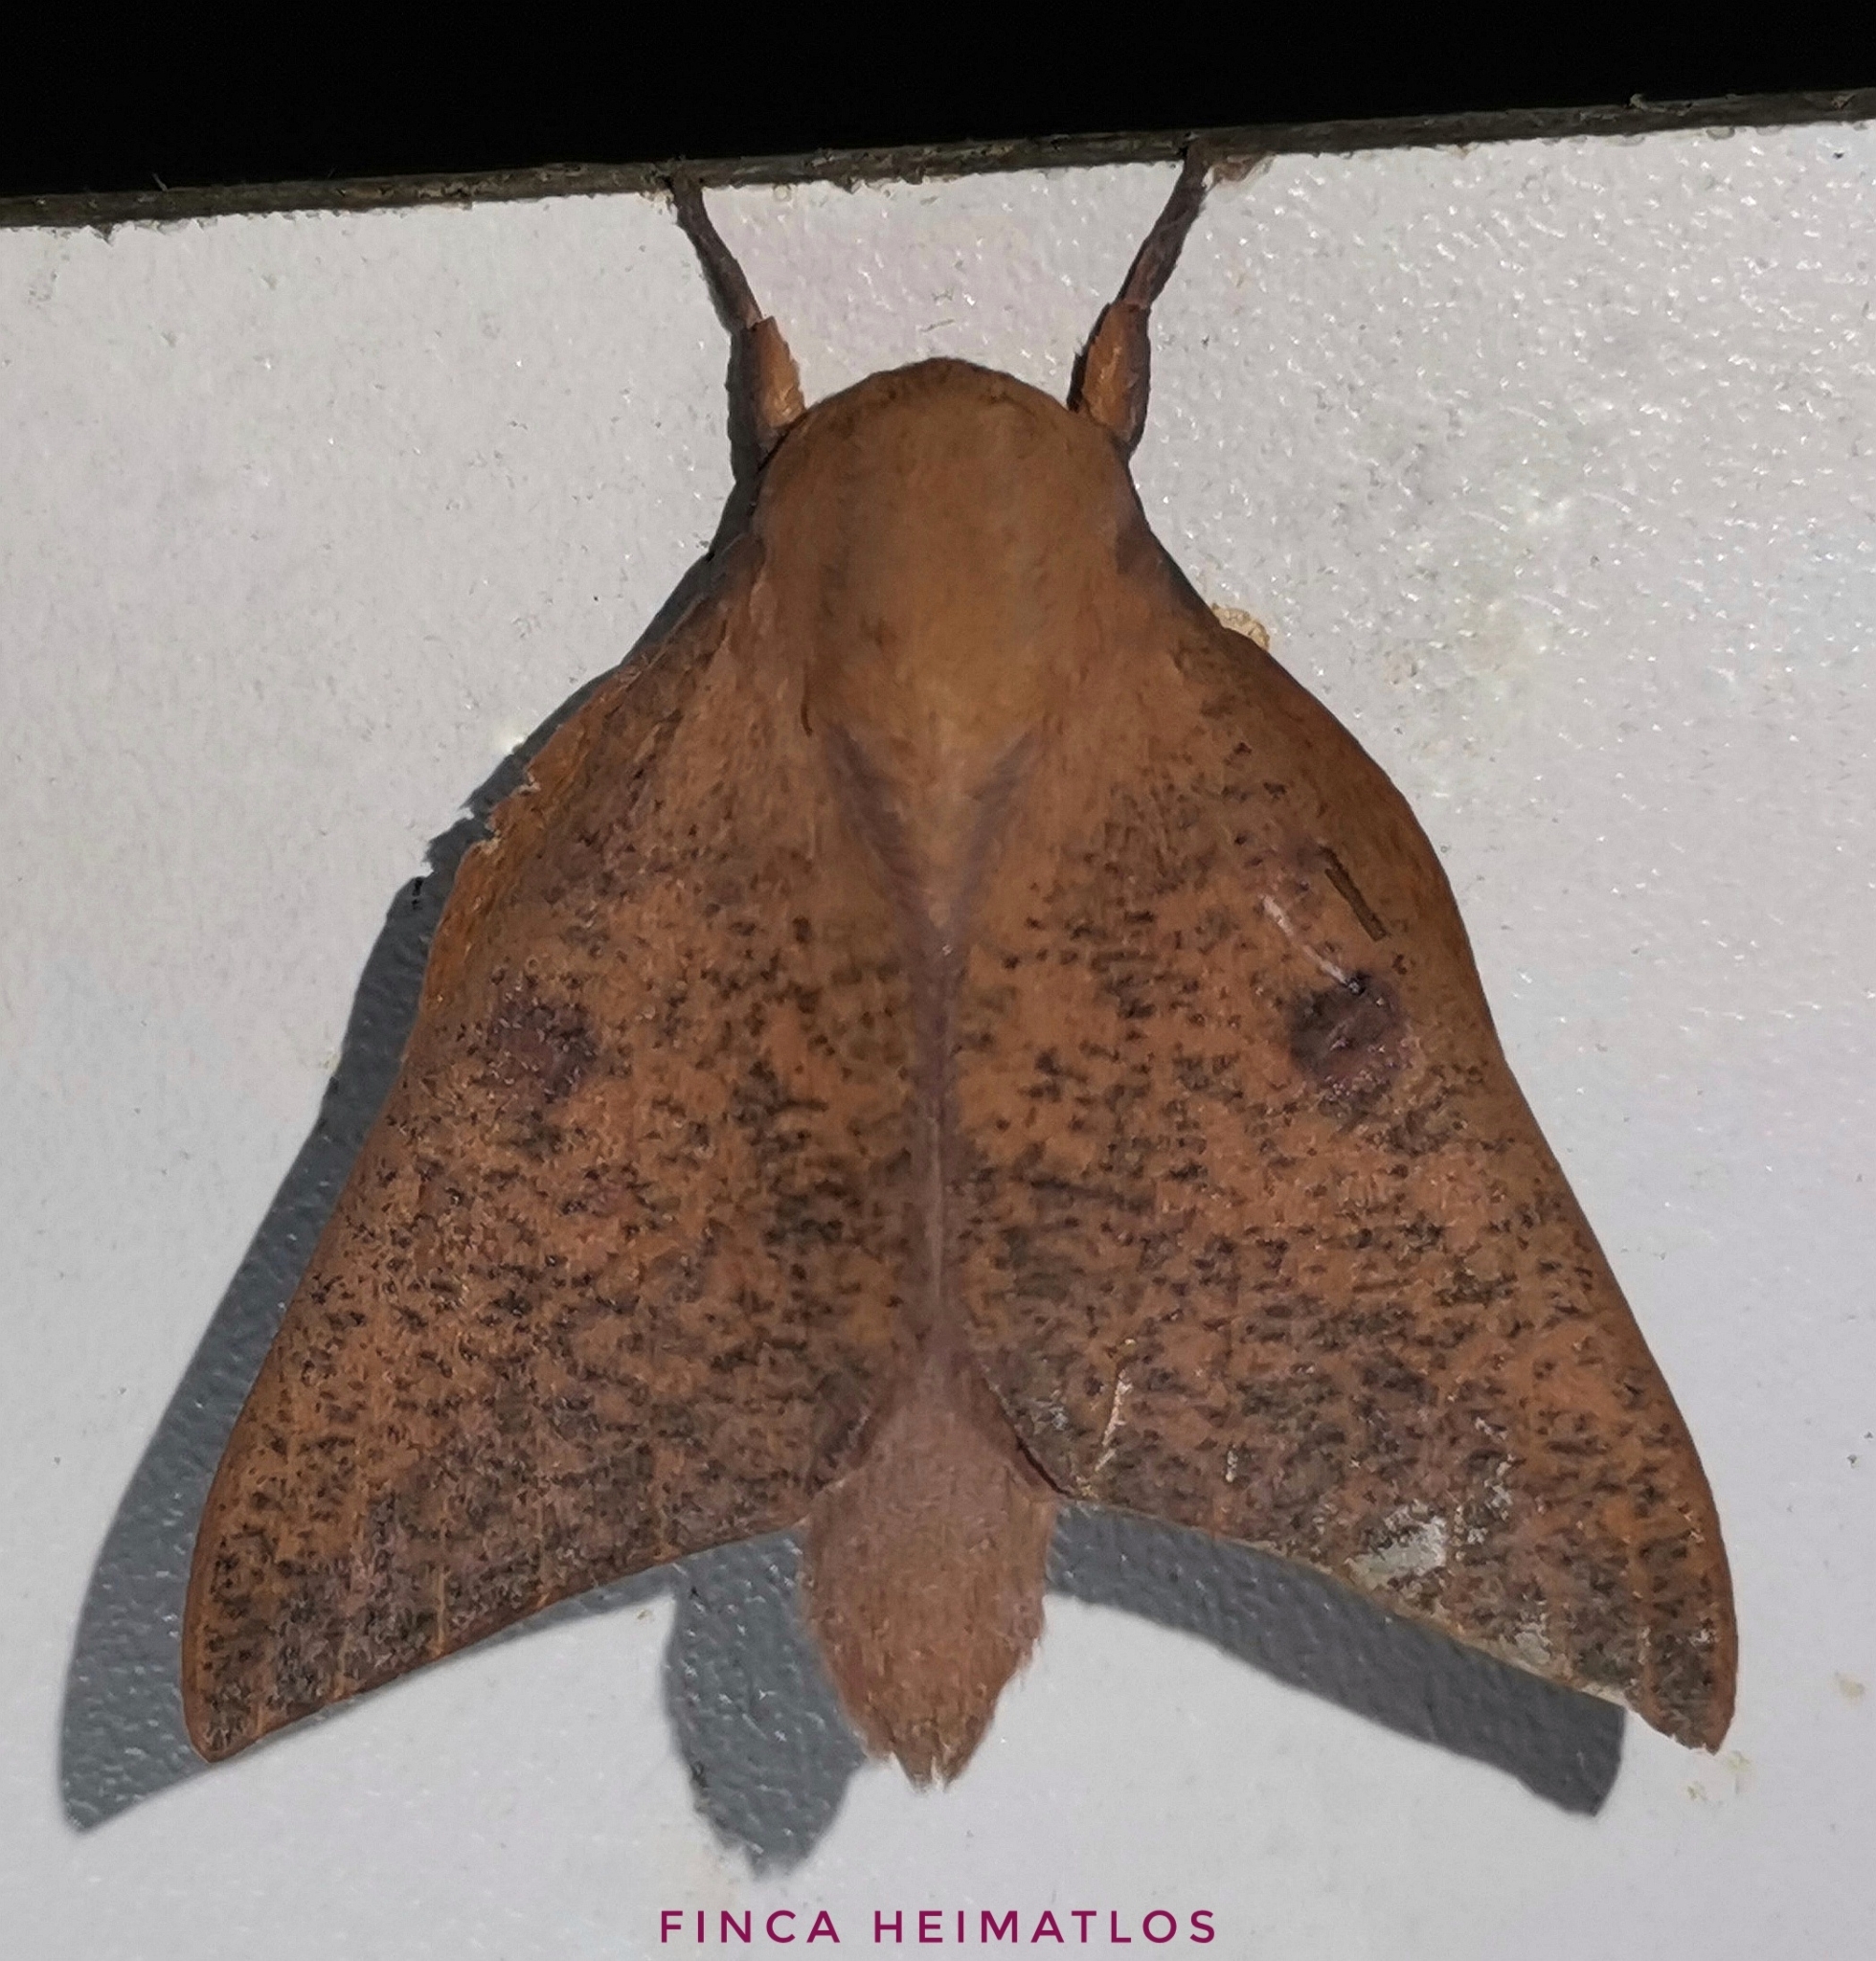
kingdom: Animalia
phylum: Arthropoda
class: Insecta
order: Lepidoptera
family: Saturniidae
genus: Adeloneivaia
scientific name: Adeloneivaia subangulata
